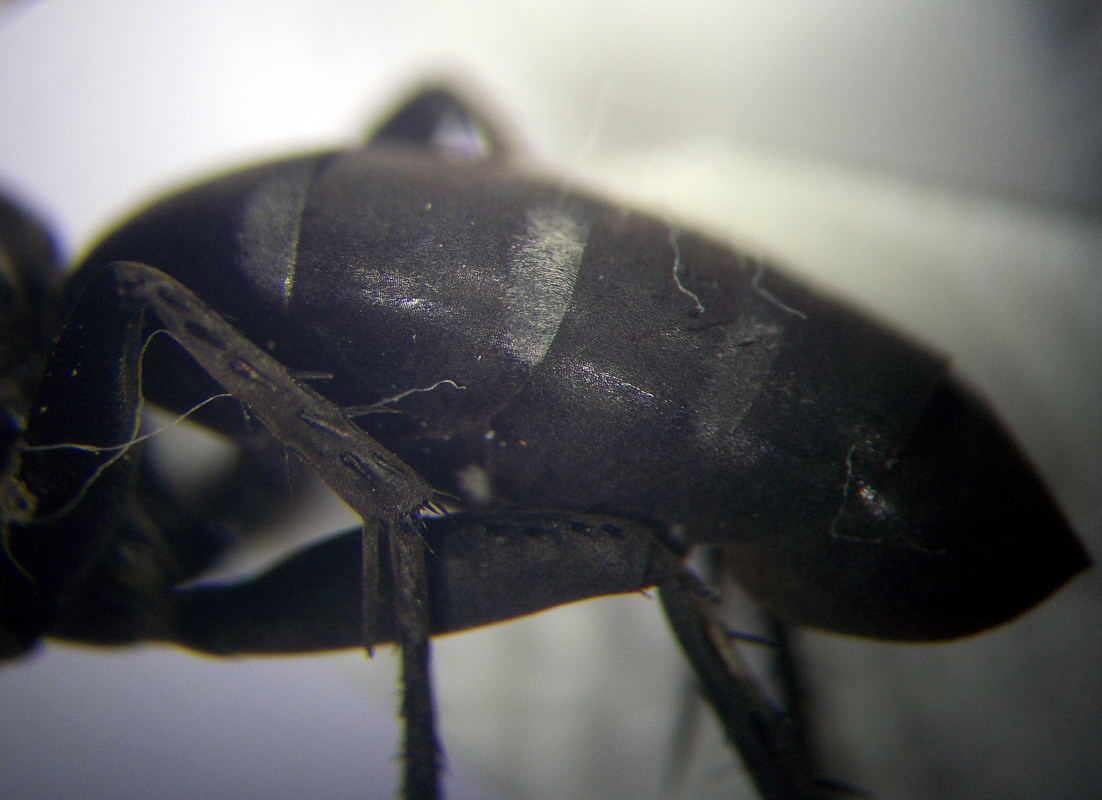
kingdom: Animalia
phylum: Arthropoda
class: Insecta
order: Hymenoptera
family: Pompilidae
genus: Dicyrtomellus
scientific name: Dicyrtomellus tingitanus
